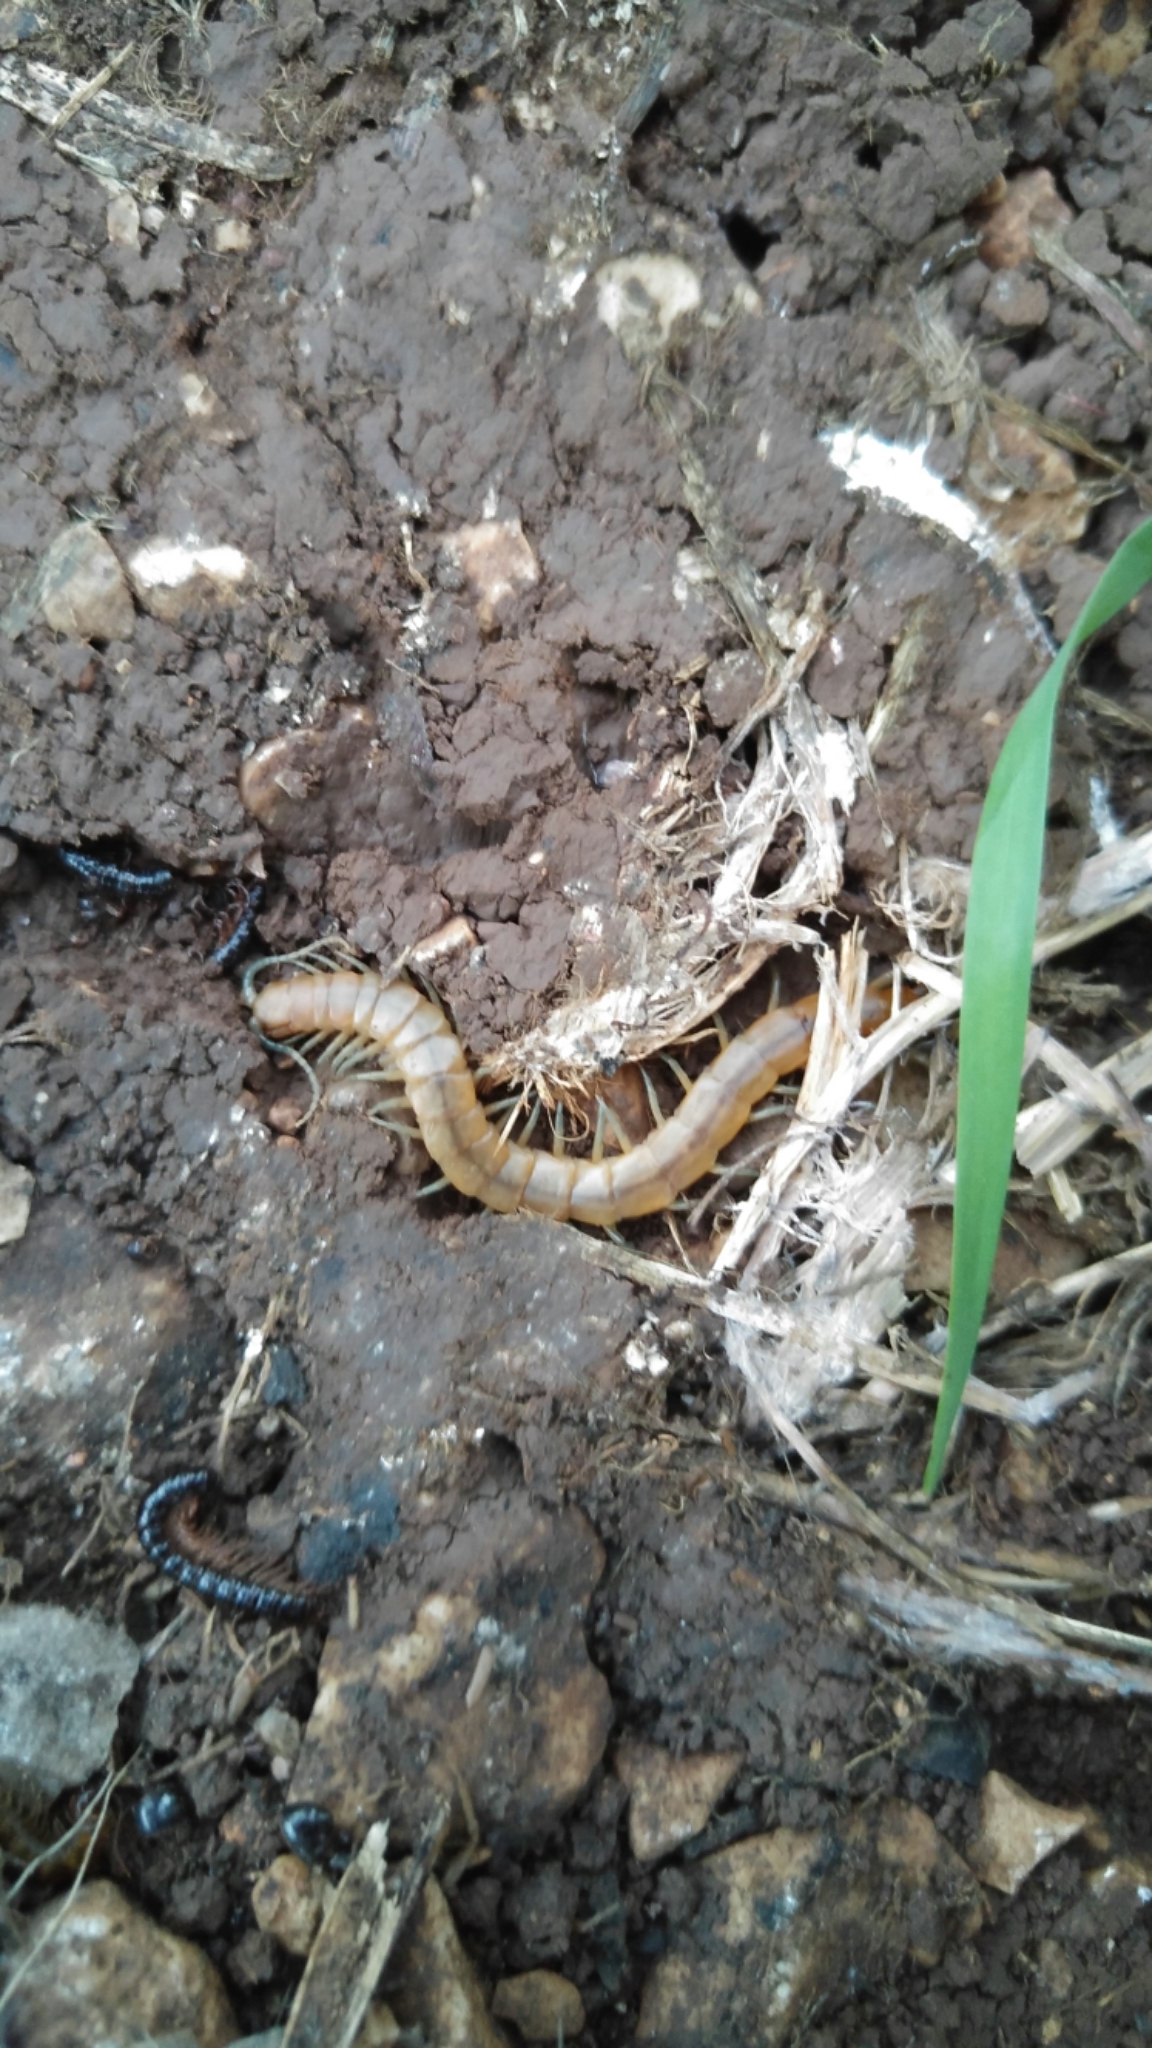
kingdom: Animalia
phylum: Arthropoda
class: Chilopoda
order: Scolopendromorpha
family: Scolopendridae
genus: Scolopendra
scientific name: Scolopendra canidens
